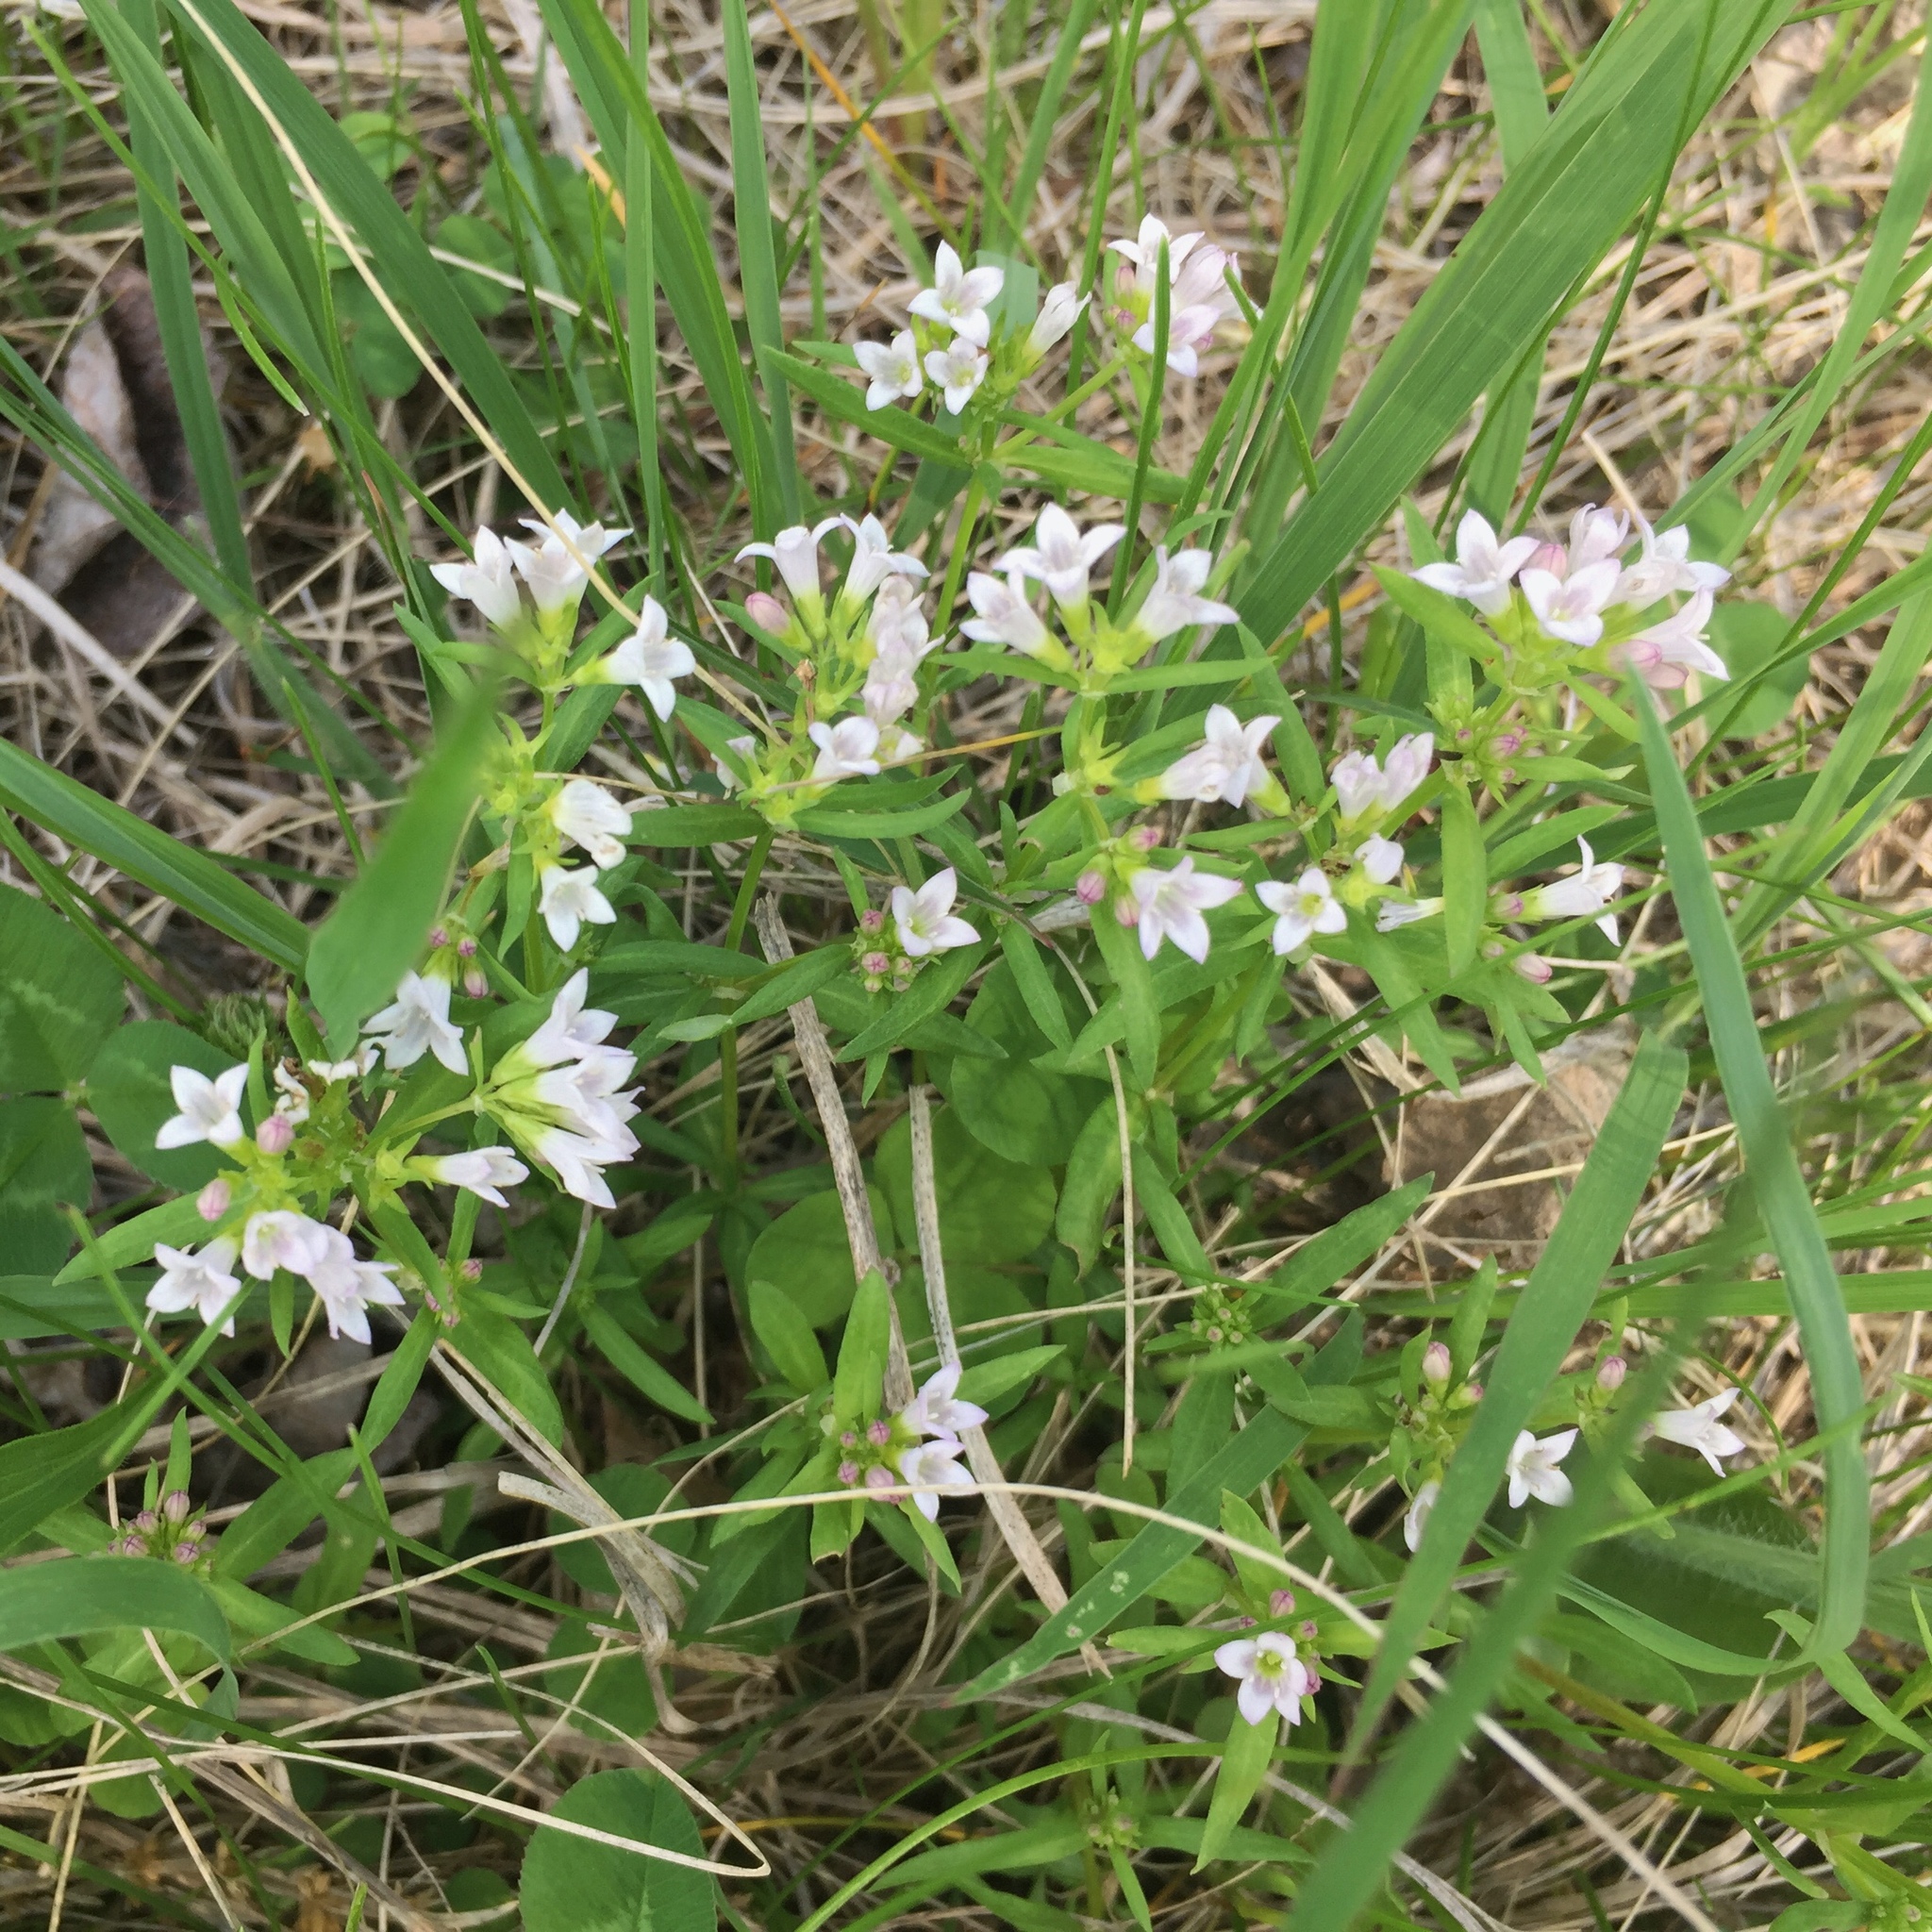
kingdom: Plantae
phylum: Tracheophyta
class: Magnoliopsida
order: Gentianales
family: Rubiaceae
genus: Houstonia
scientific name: Houstonia longifolia
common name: Long-leaved bluets
